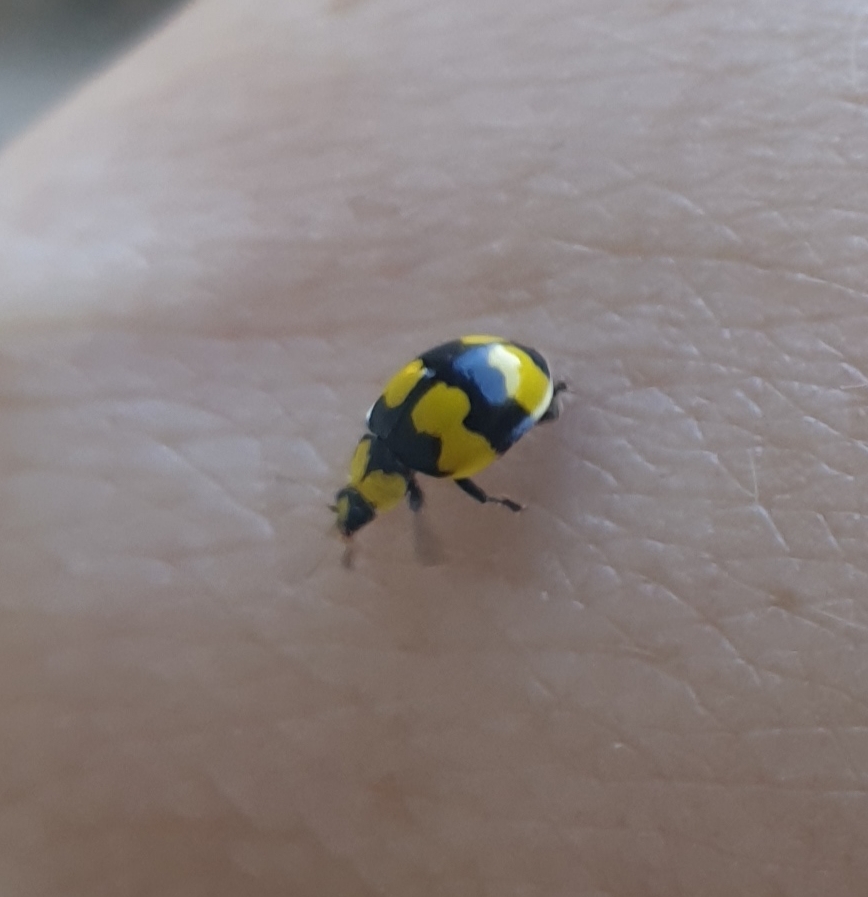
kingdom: Animalia
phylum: Arthropoda
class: Insecta
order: Coleoptera
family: Coccinellidae
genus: Illeis
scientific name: Illeis galbula
